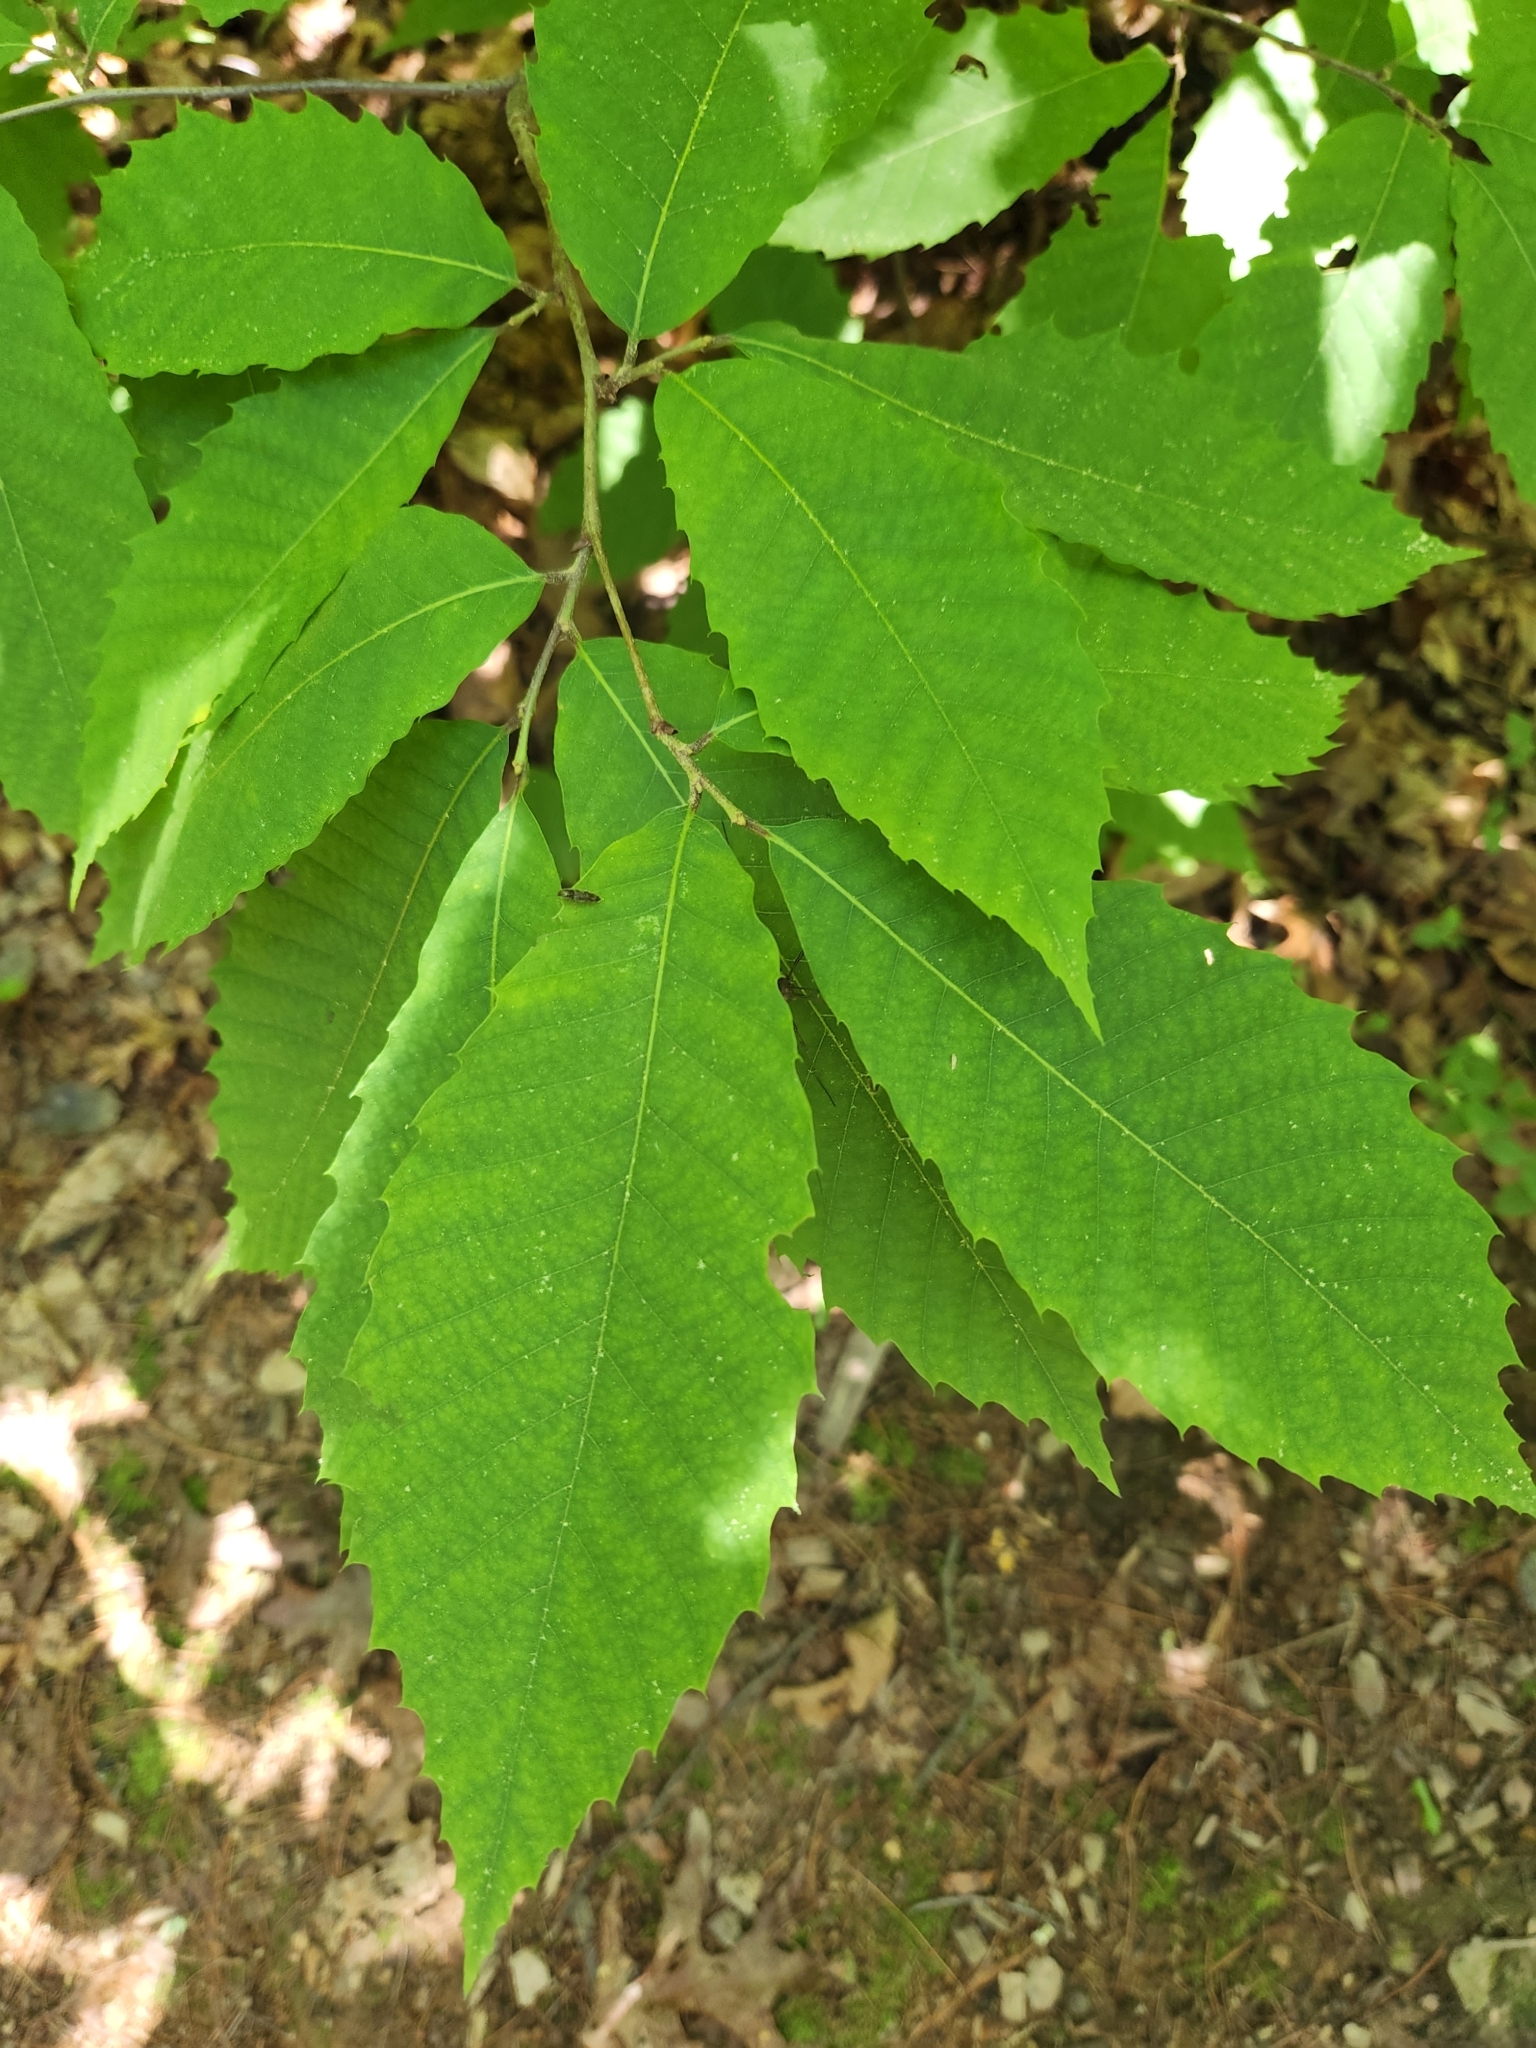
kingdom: Plantae
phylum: Tracheophyta
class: Magnoliopsida
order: Fagales
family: Fagaceae
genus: Castanea
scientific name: Castanea dentata
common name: American chestnut
